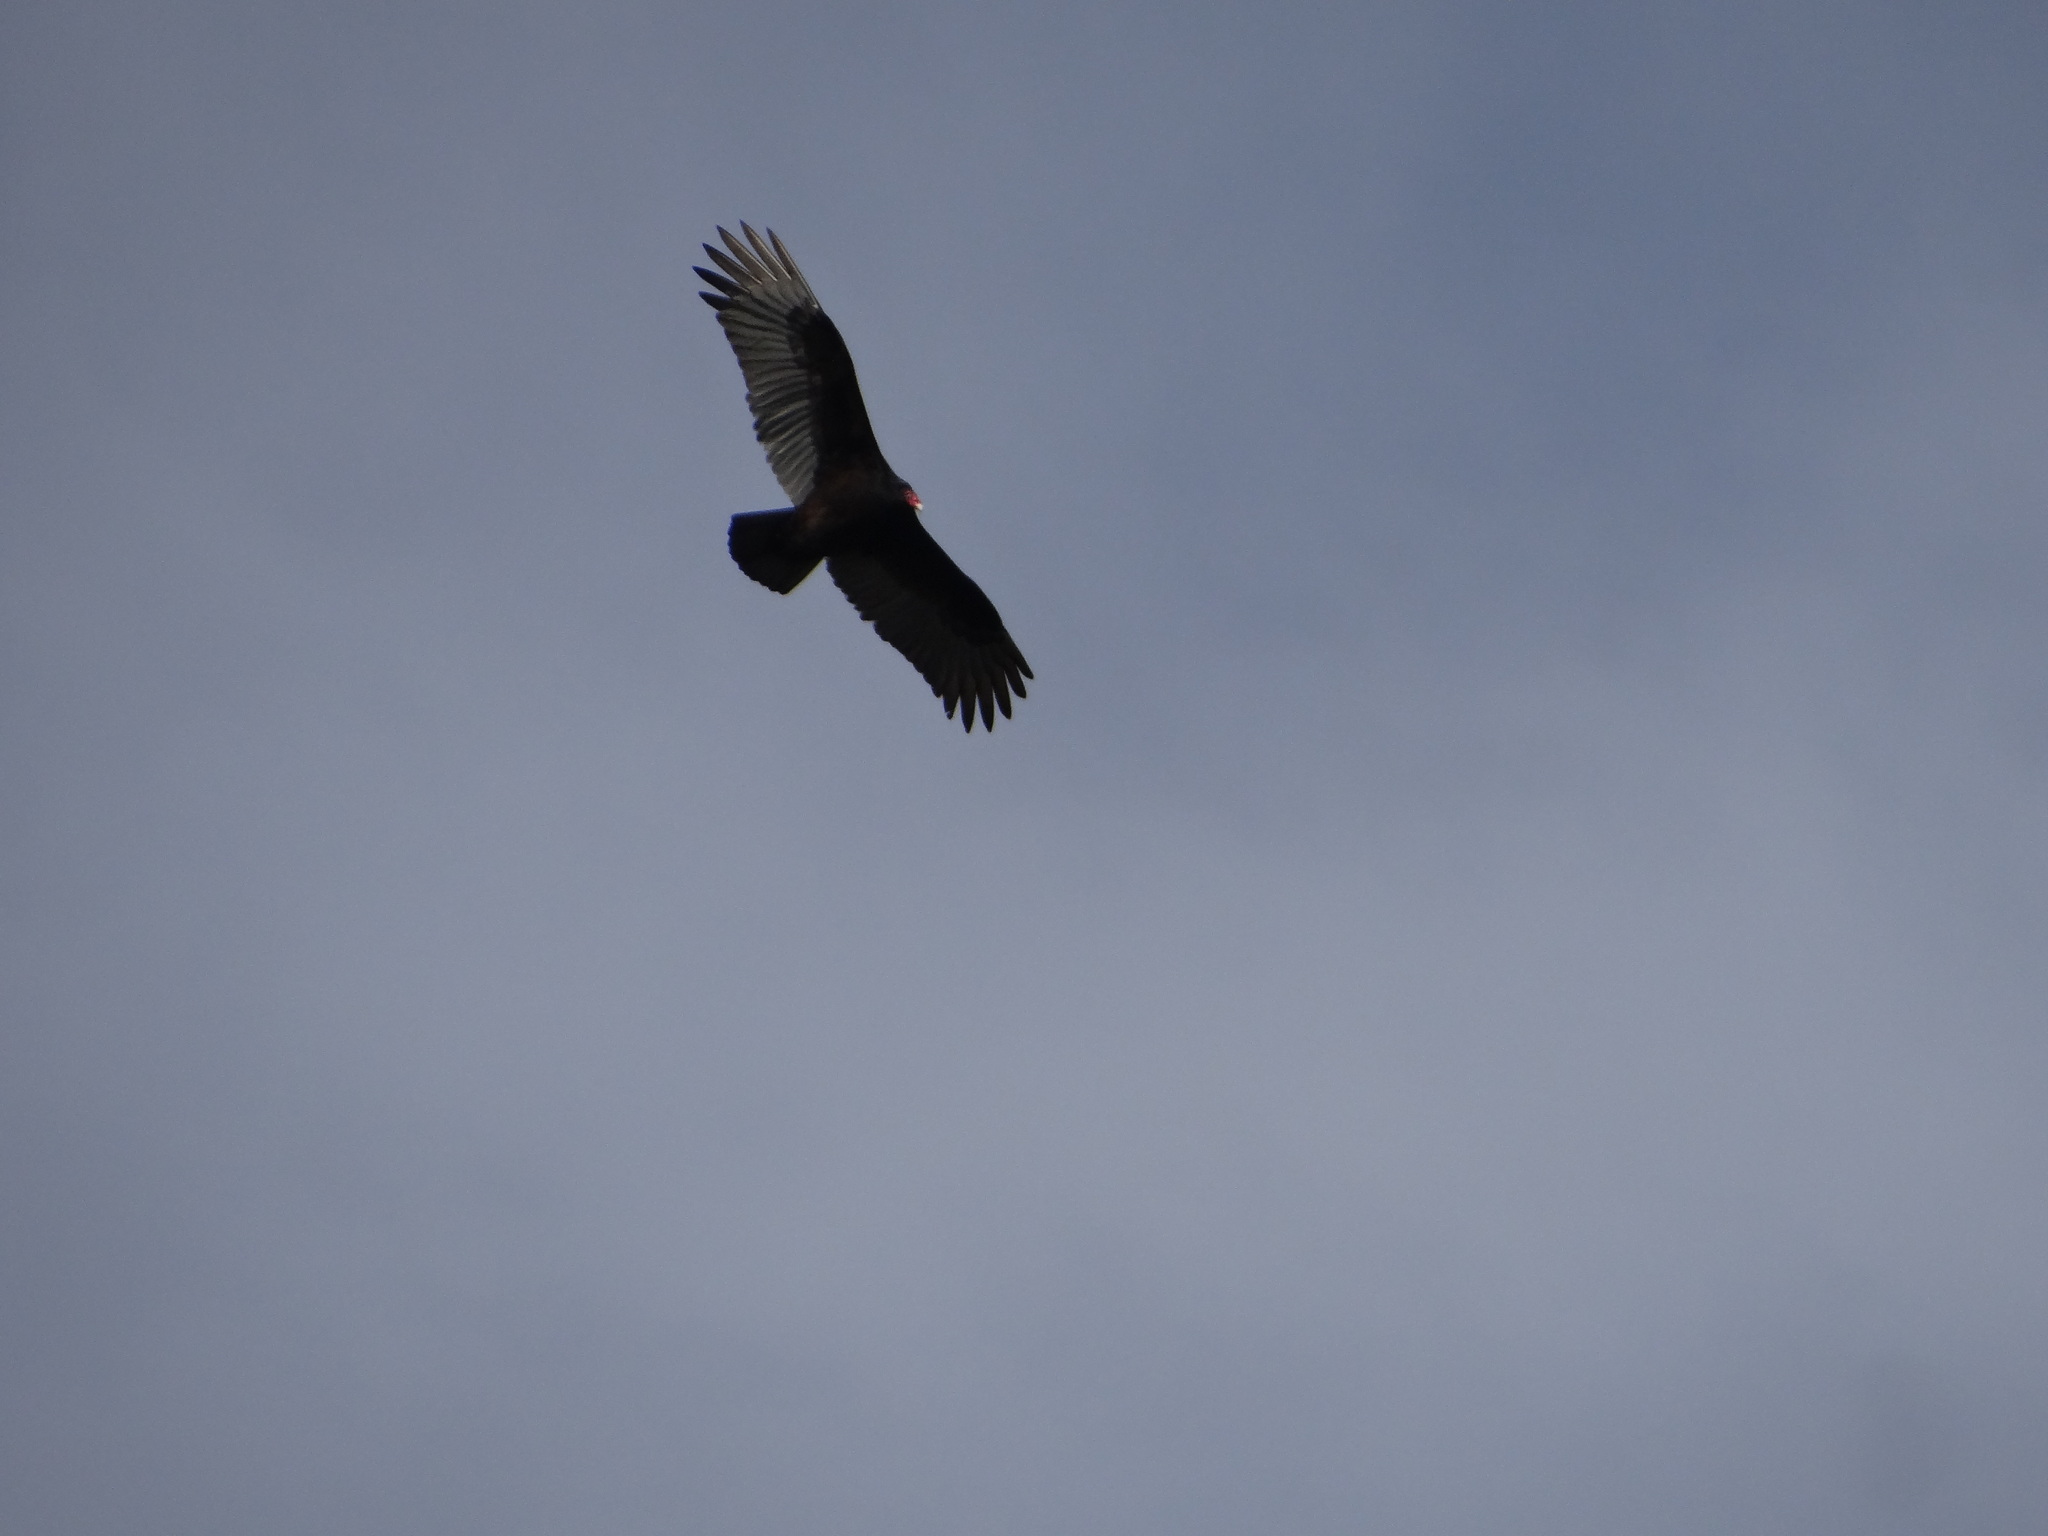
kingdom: Animalia
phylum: Chordata
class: Aves
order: Accipitriformes
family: Cathartidae
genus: Cathartes
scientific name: Cathartes aura
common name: Turkey vulture
